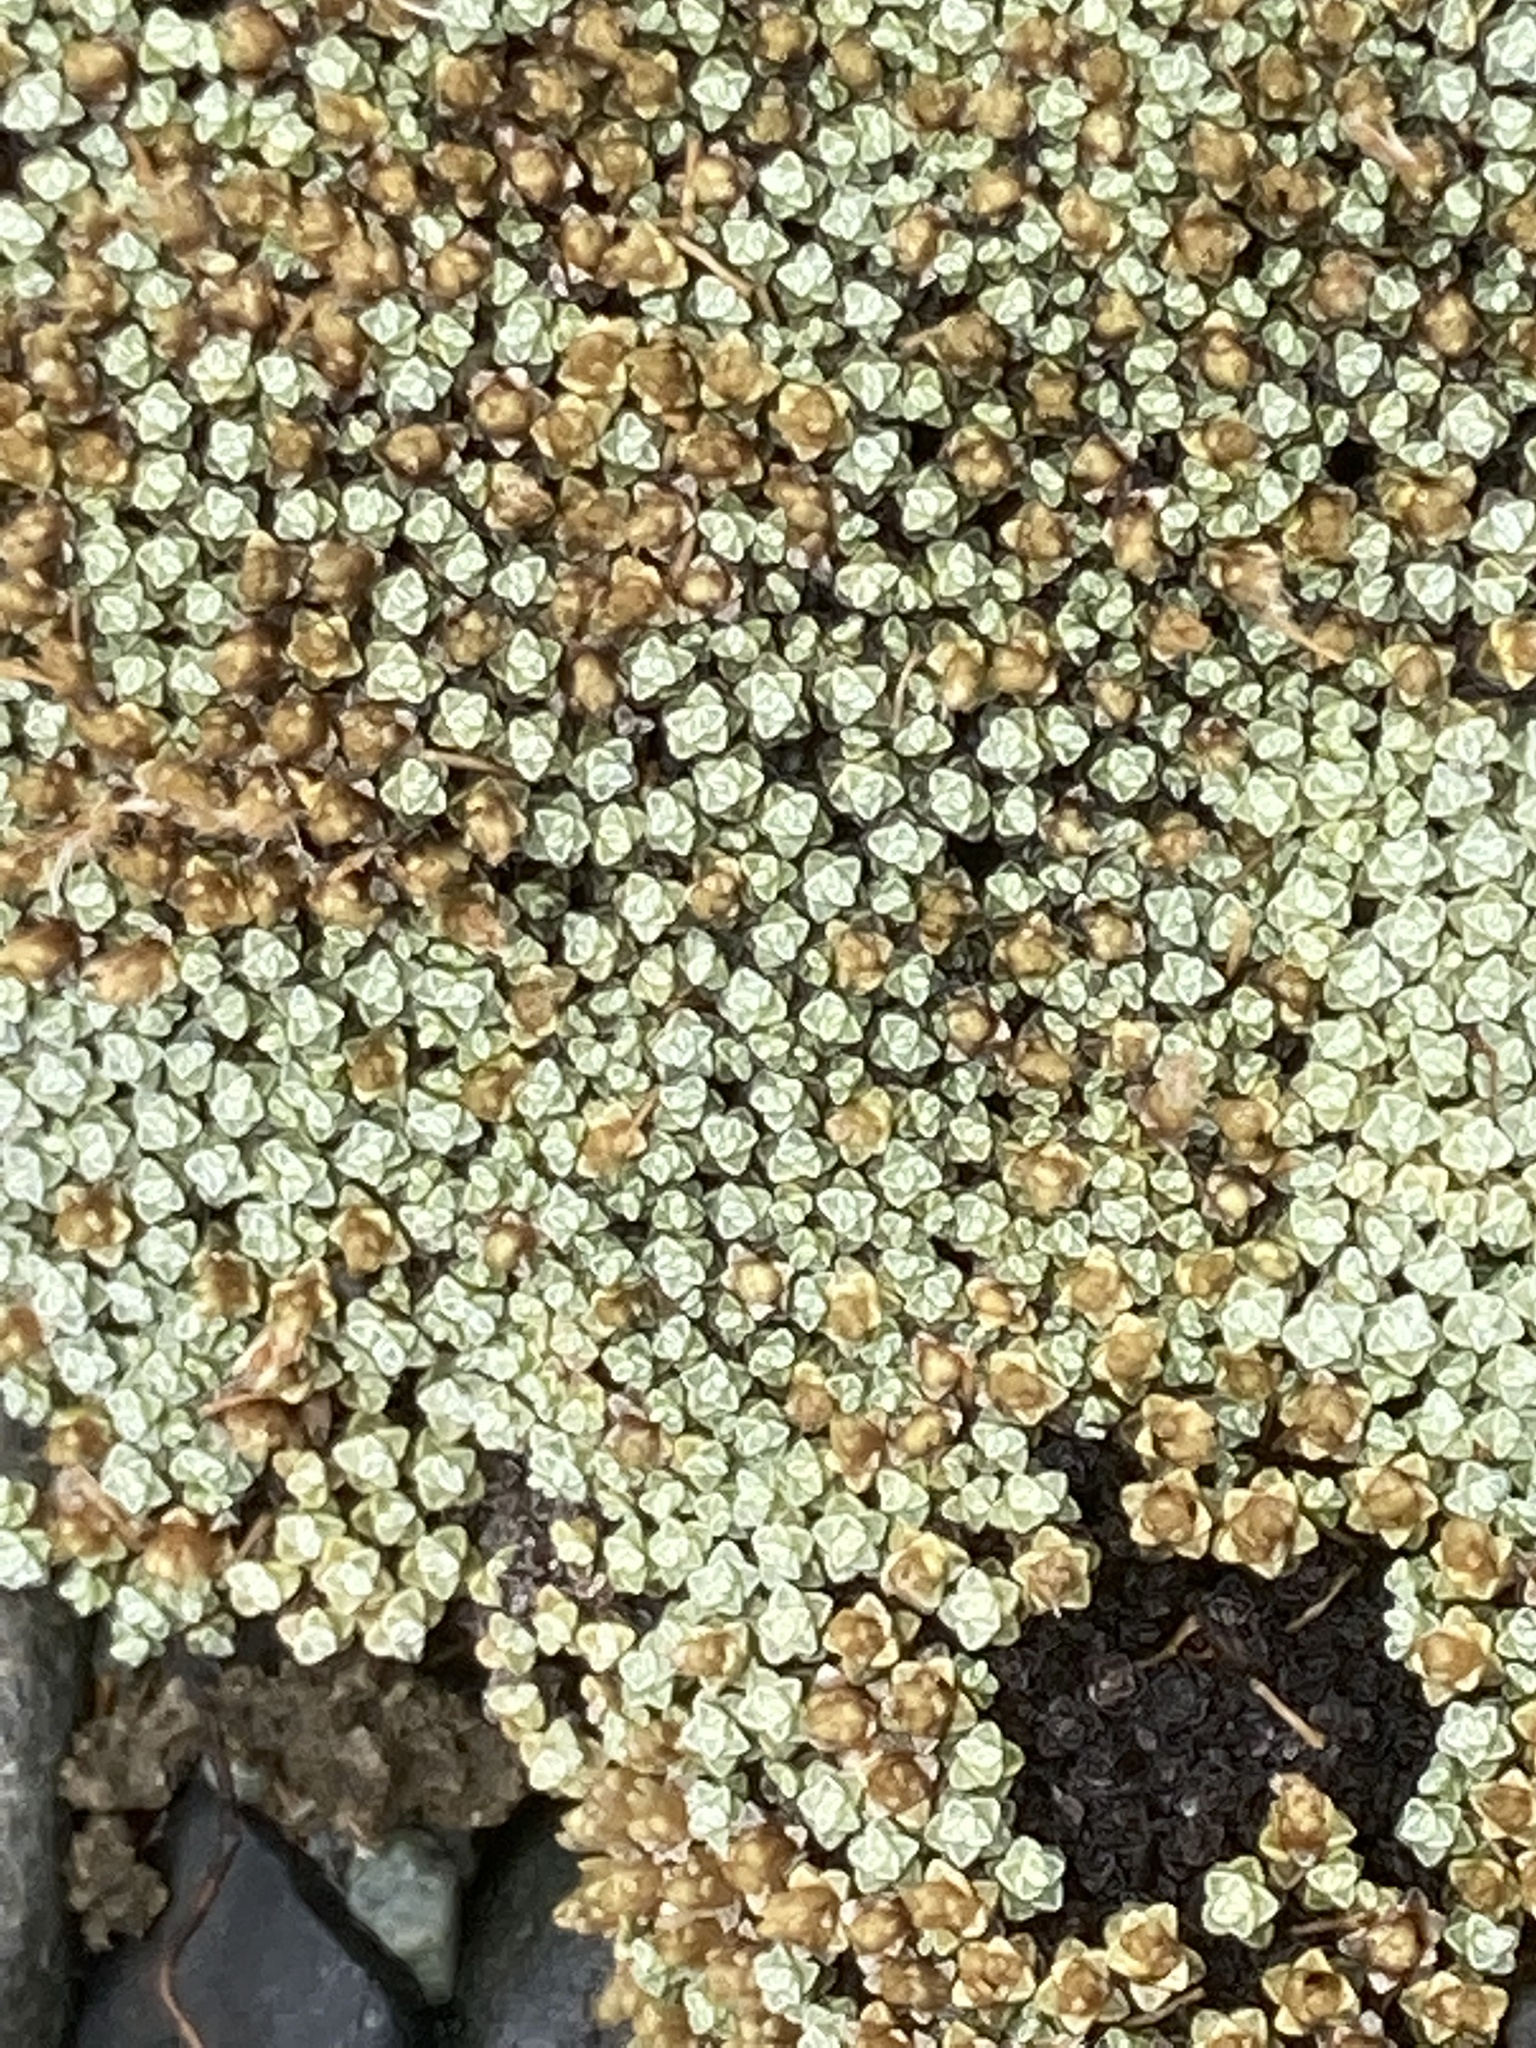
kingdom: Plantae
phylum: Tracheophyta
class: Magnoliopsida
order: Asterales
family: Asteraceae
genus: Raoulia
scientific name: Raoulia australis
